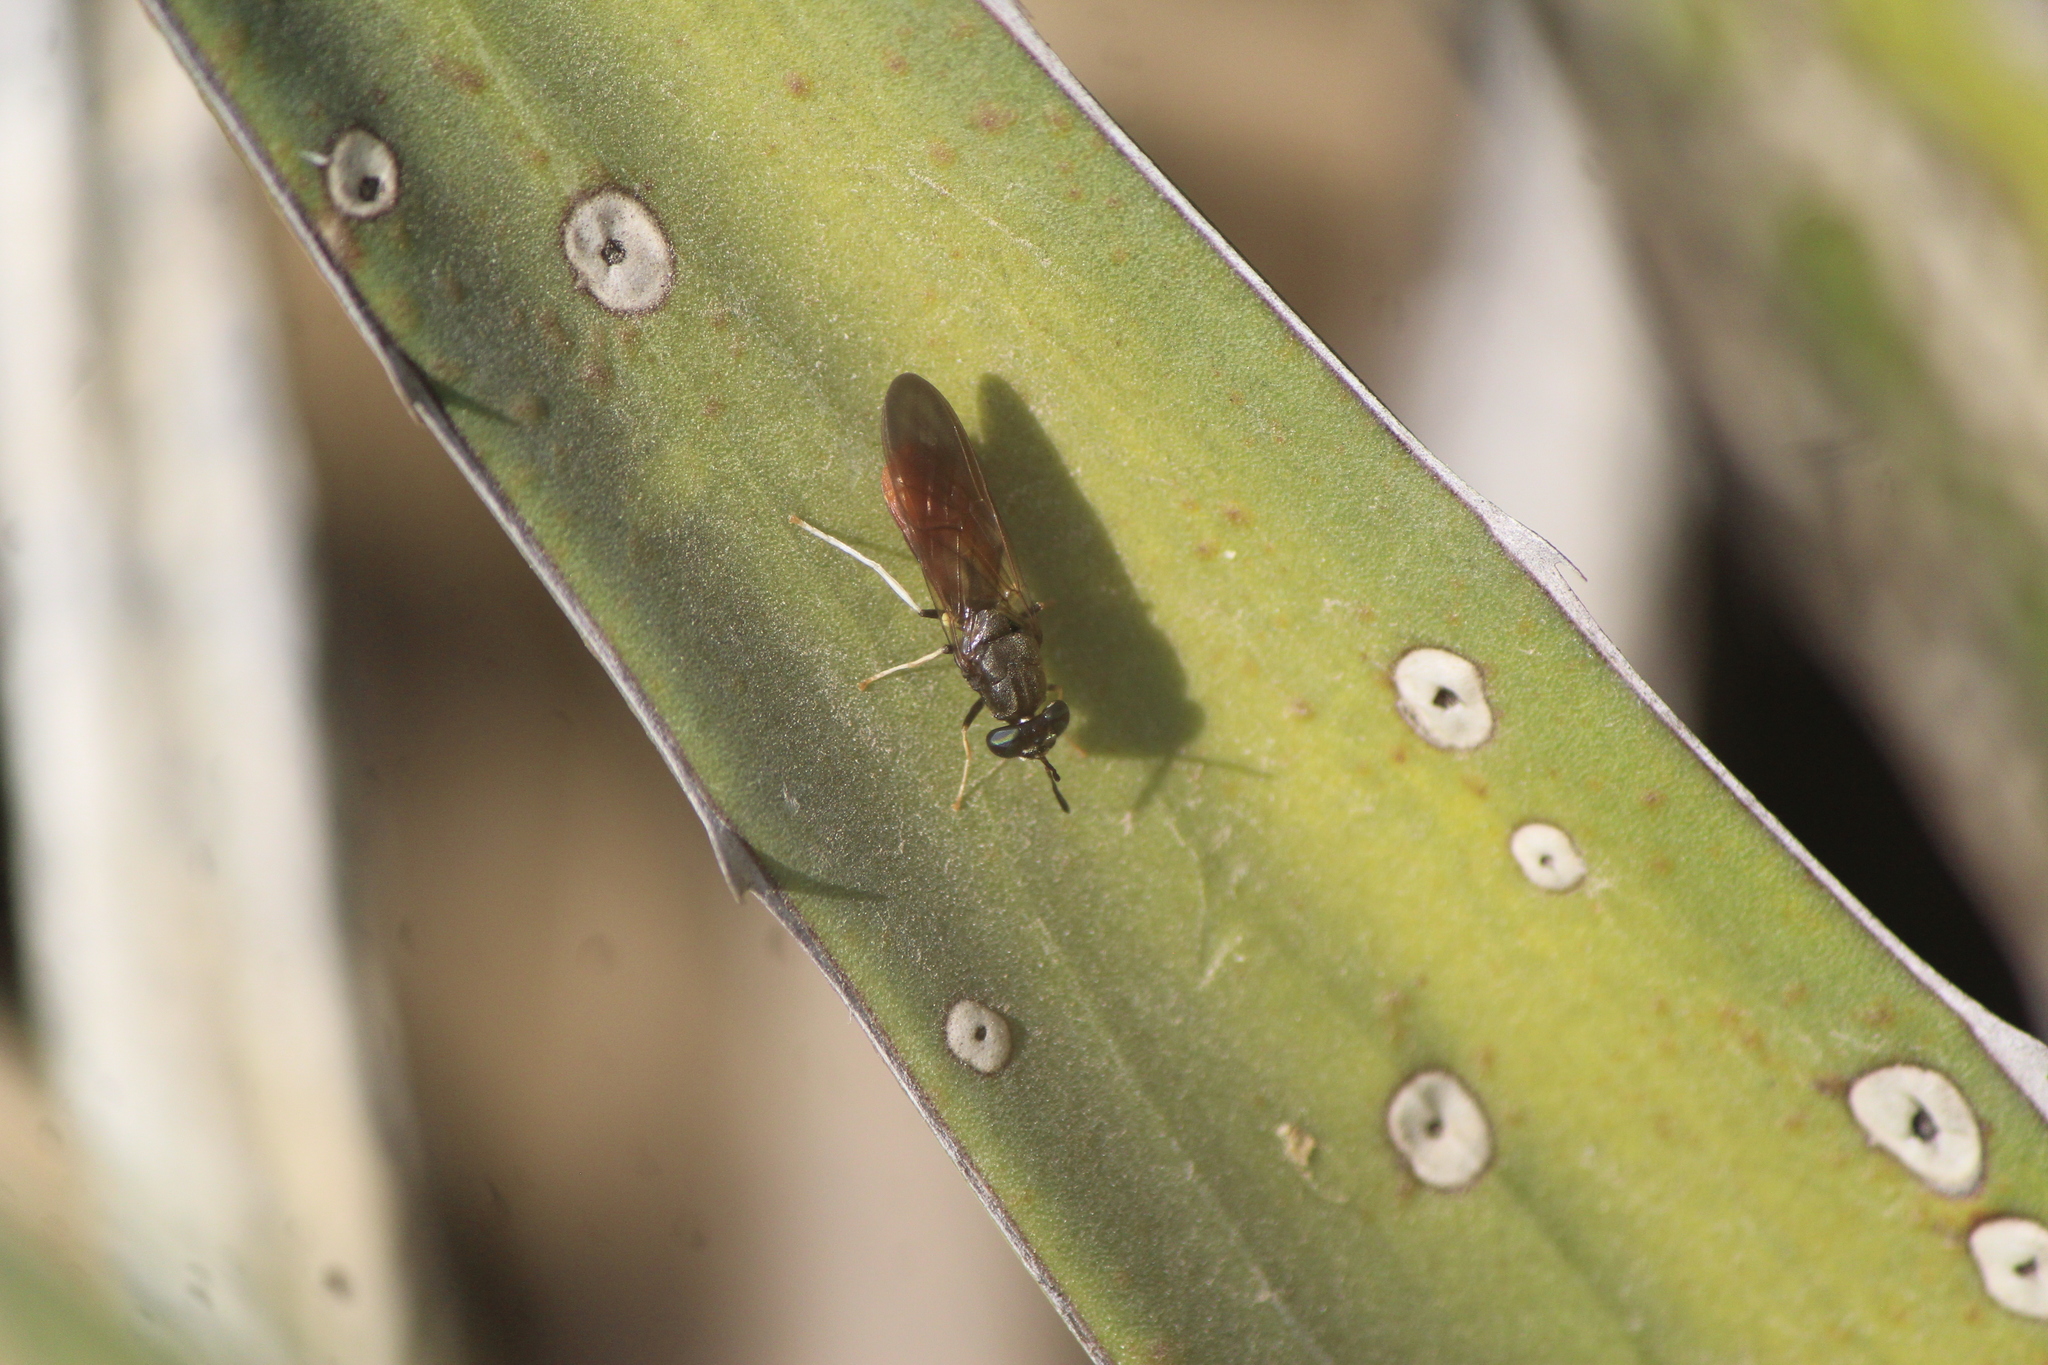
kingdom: Animalia
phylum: Arthropoda
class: Insecta
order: Diptera
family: Stratiomyidae
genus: Hermetia
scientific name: Hermetia relicta
